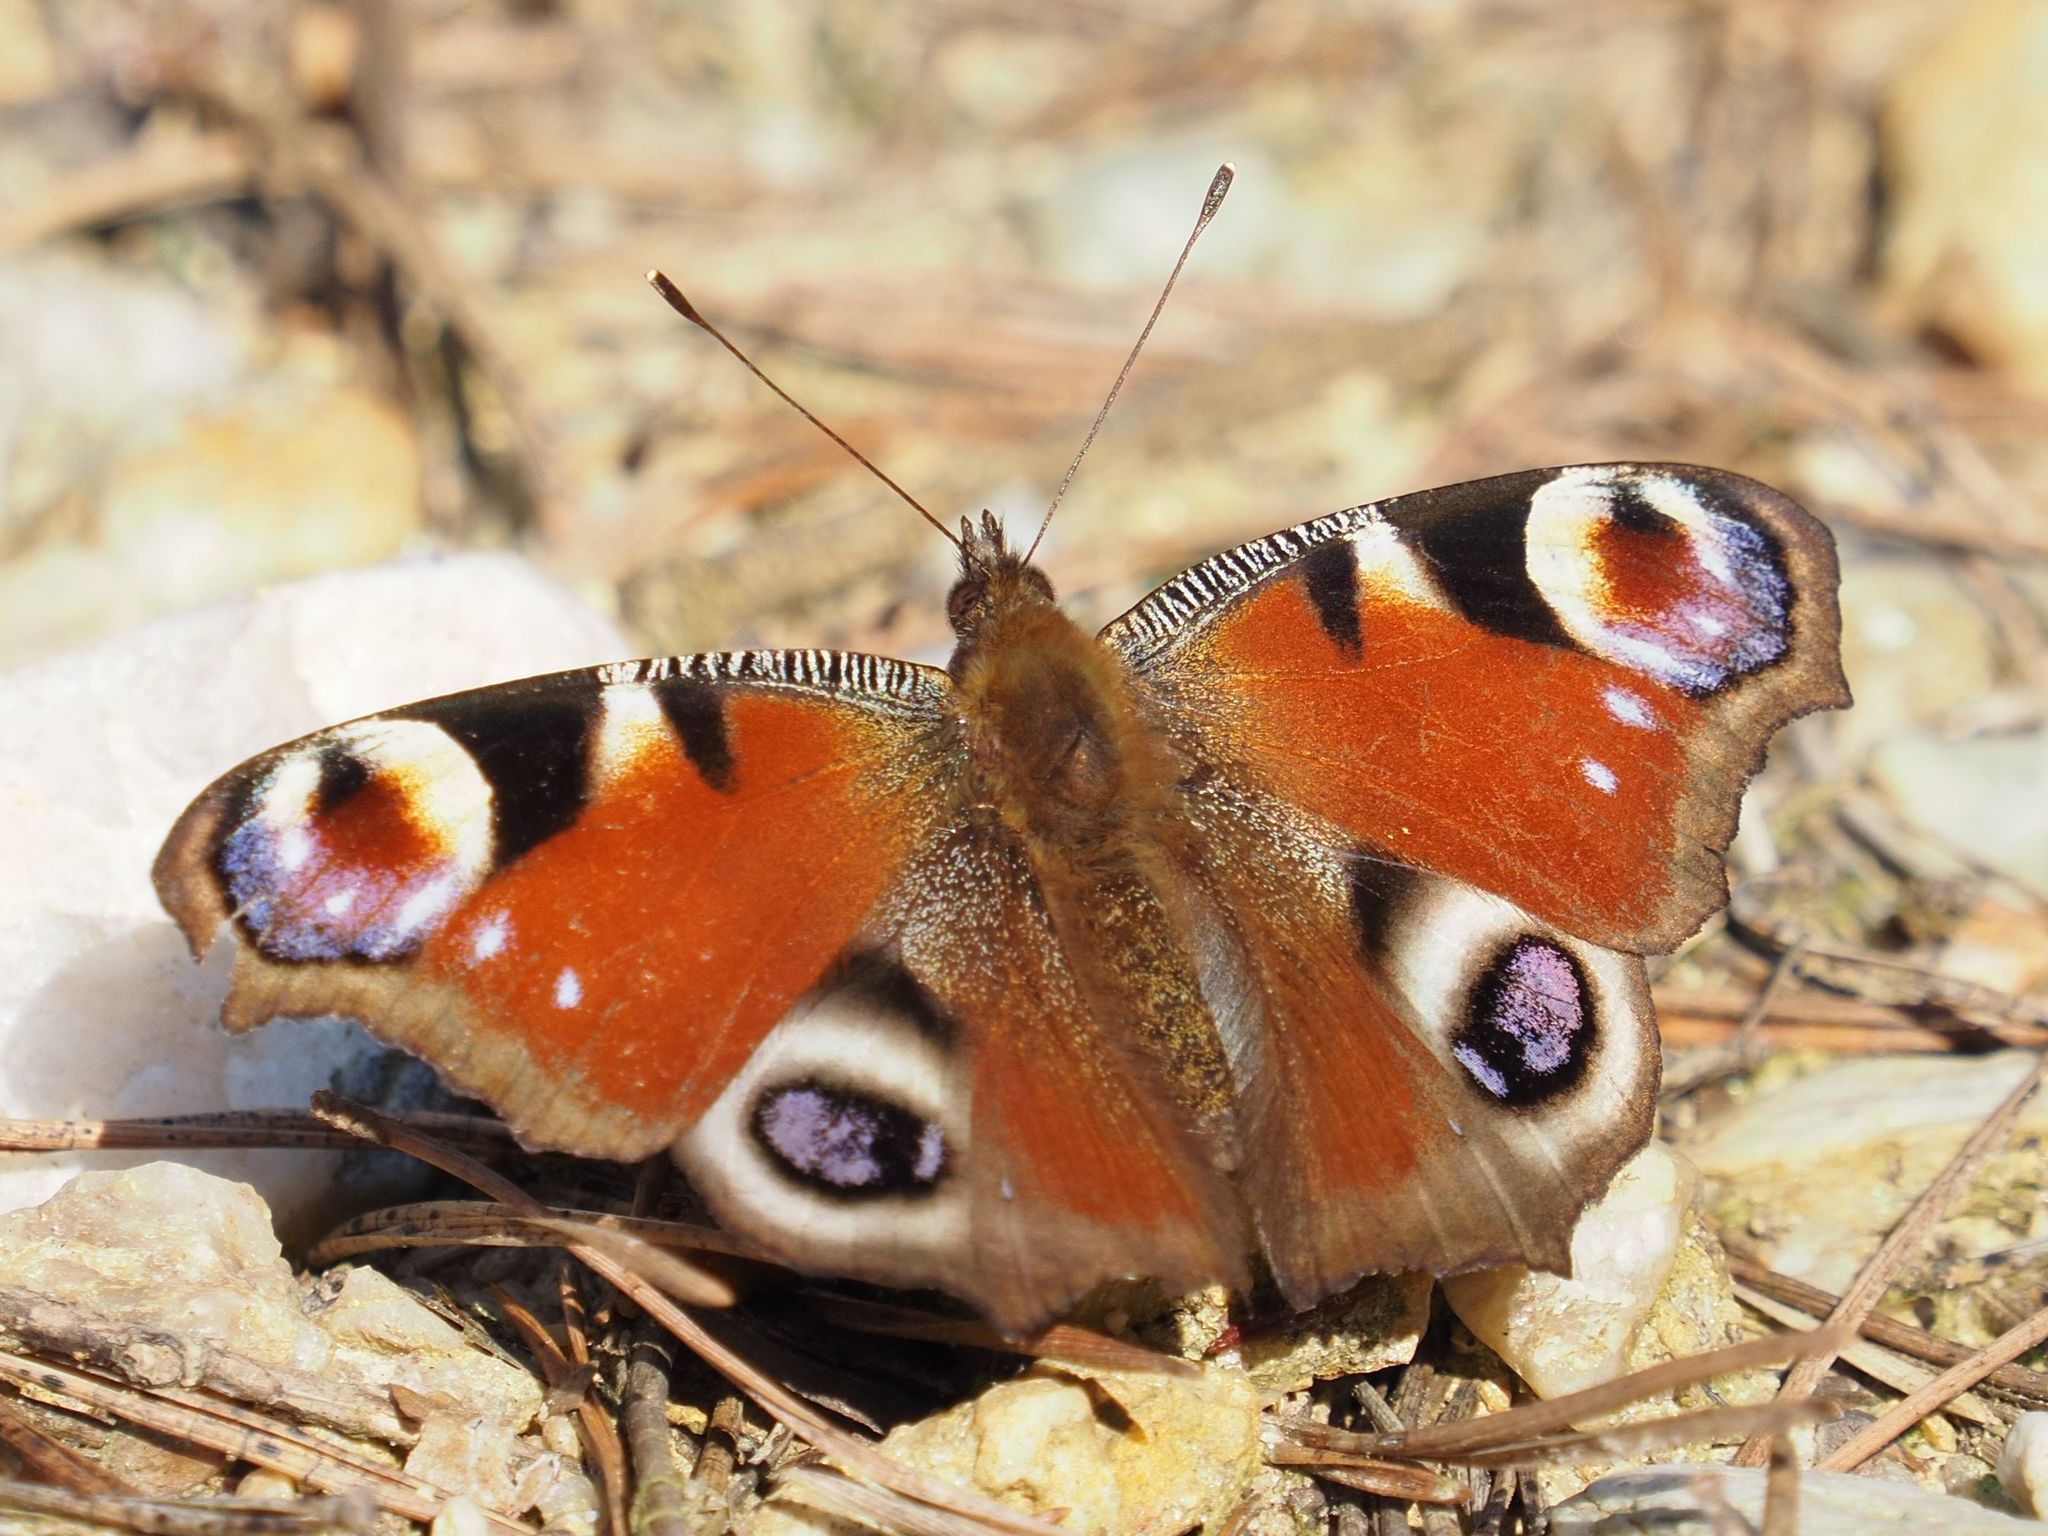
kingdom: Animalia
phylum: Arthropoda
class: Insecta
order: Lepidoptera
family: Nymphalidae
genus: Aglais
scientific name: Aglais io
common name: Peacock
